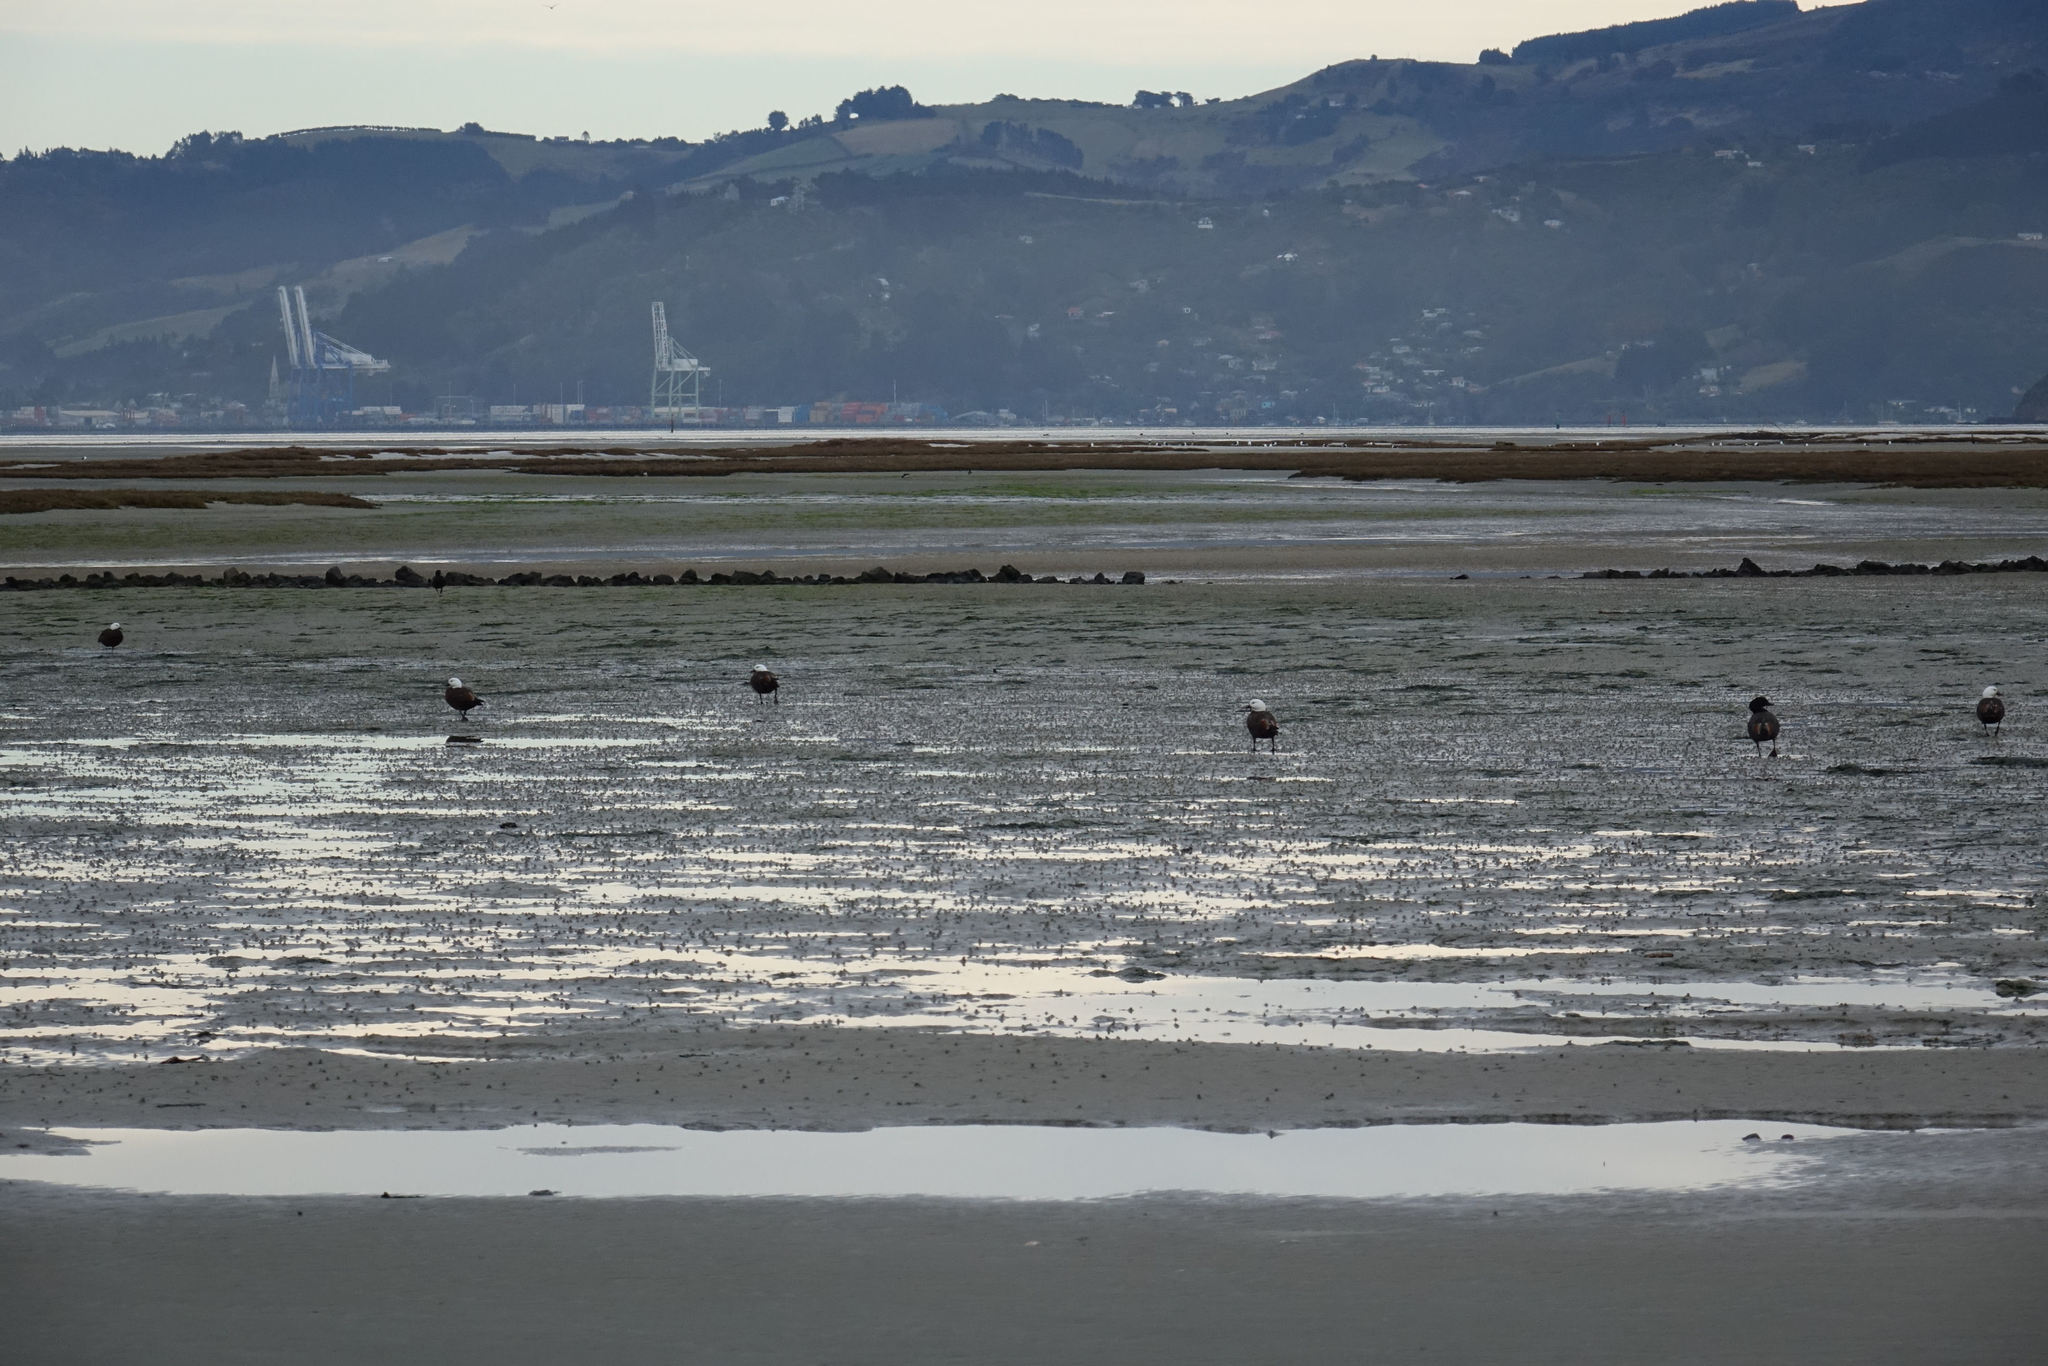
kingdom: Animalia
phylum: Chordata
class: Aves
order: Anseriformes
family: Anatidae
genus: Tadorna
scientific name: Tadorna variegata
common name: Paradise shelduck
